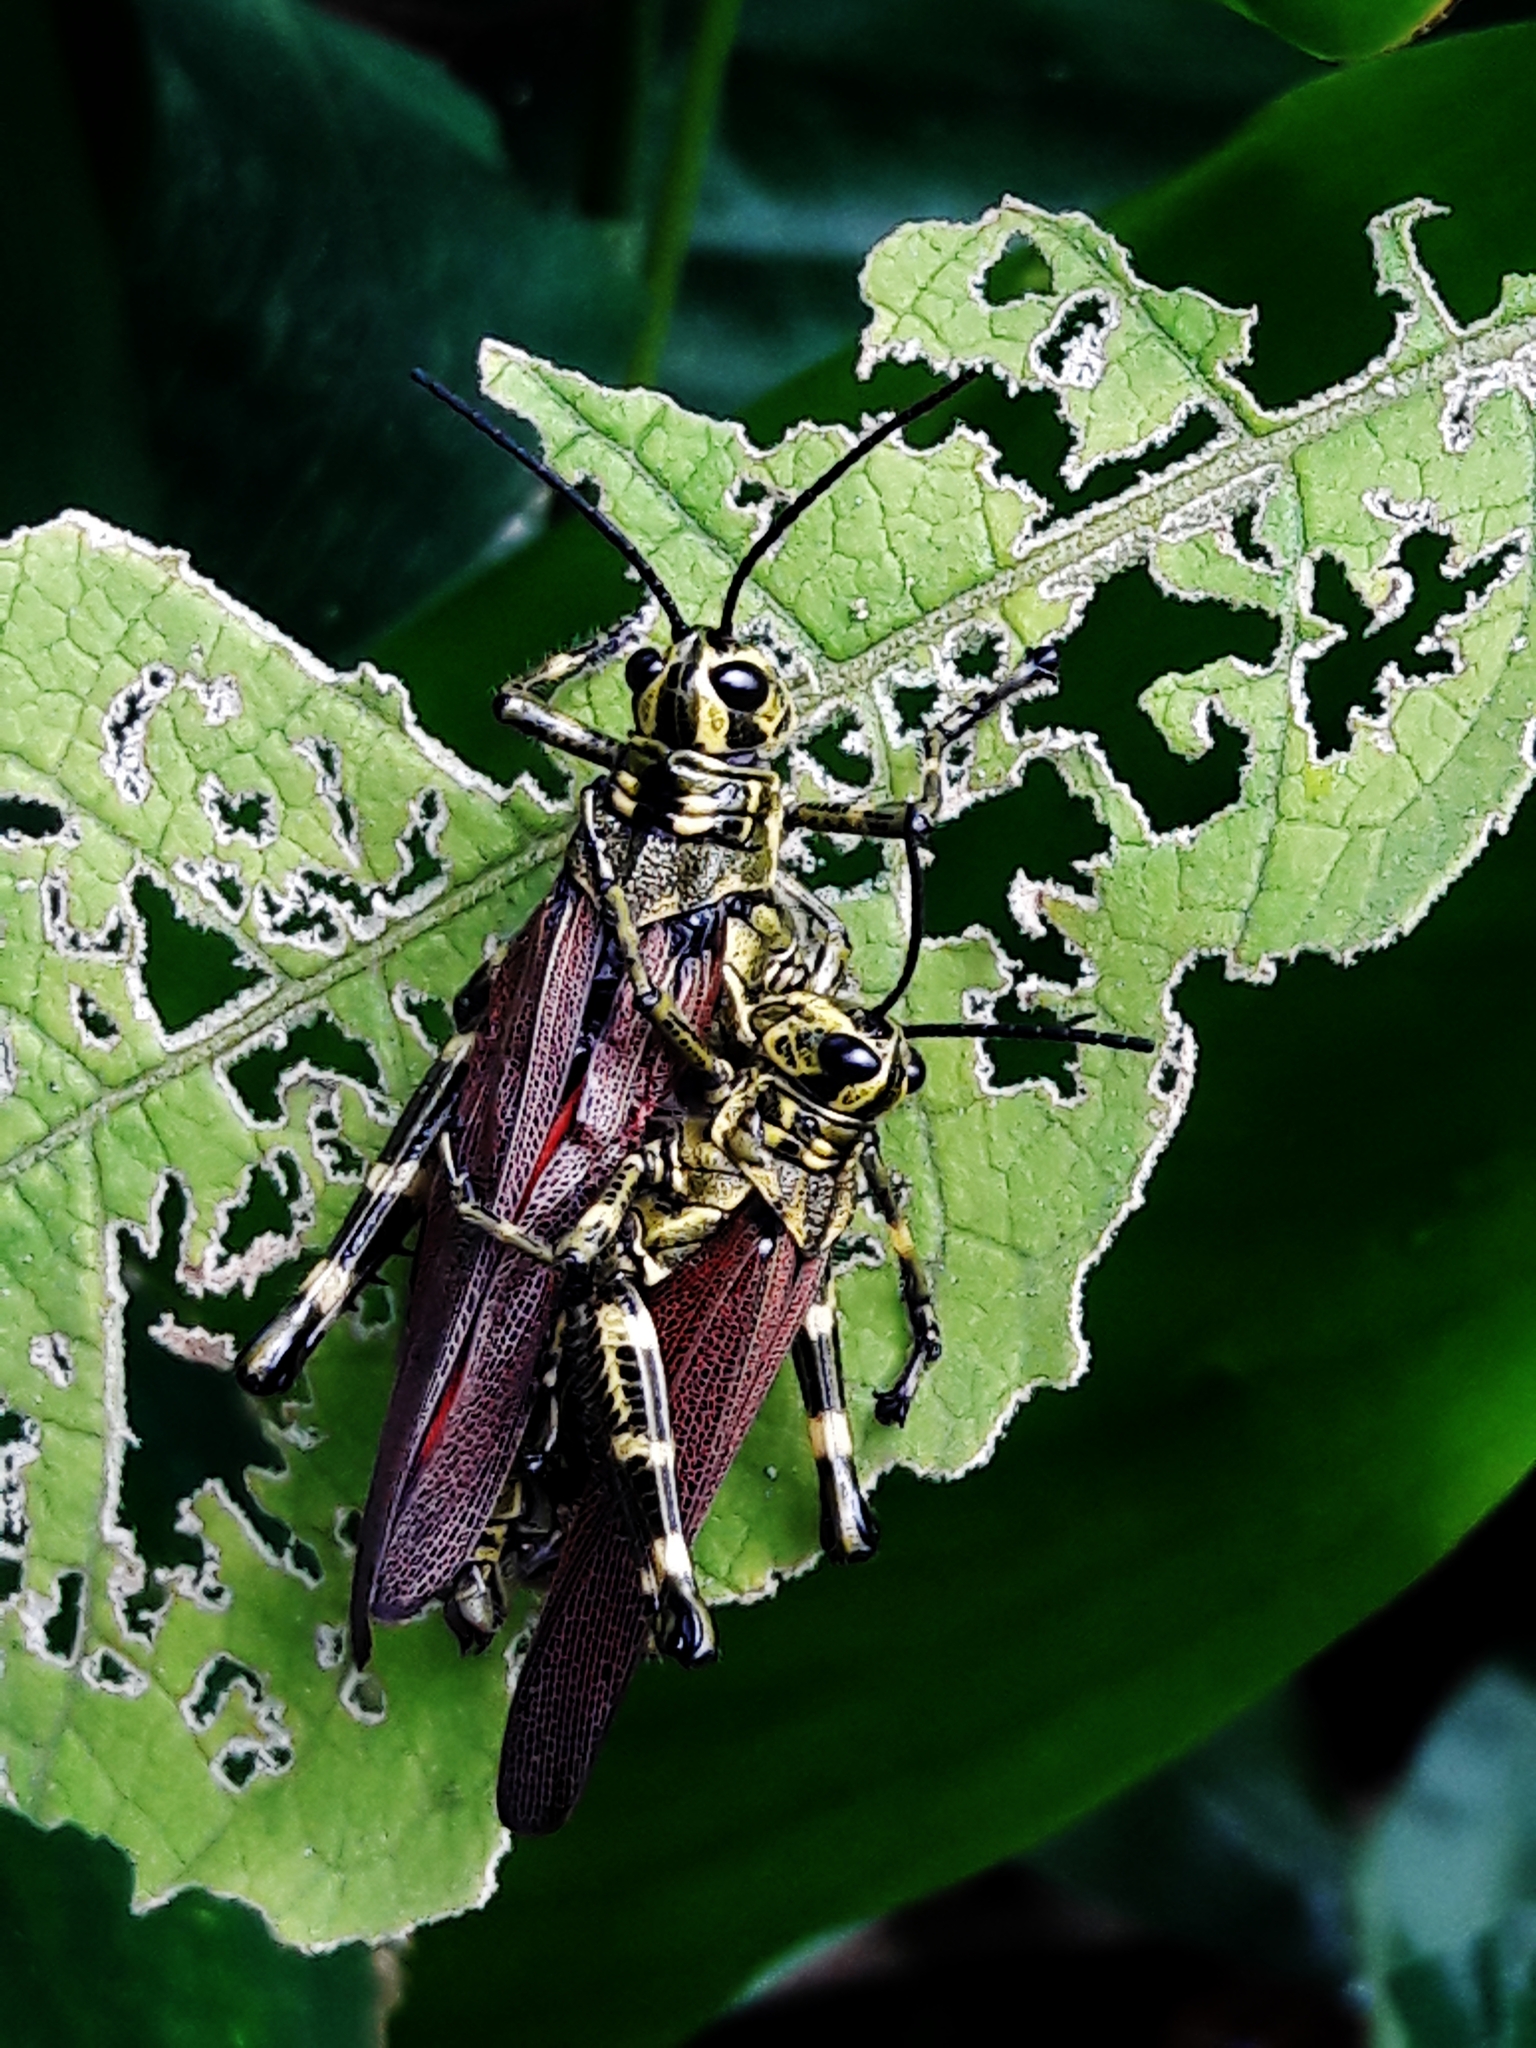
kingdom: Animalia
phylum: Arthropoda
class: Insecta
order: Orthoptera
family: Romaleidae
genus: Chromacris
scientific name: Chromacris speciosa
